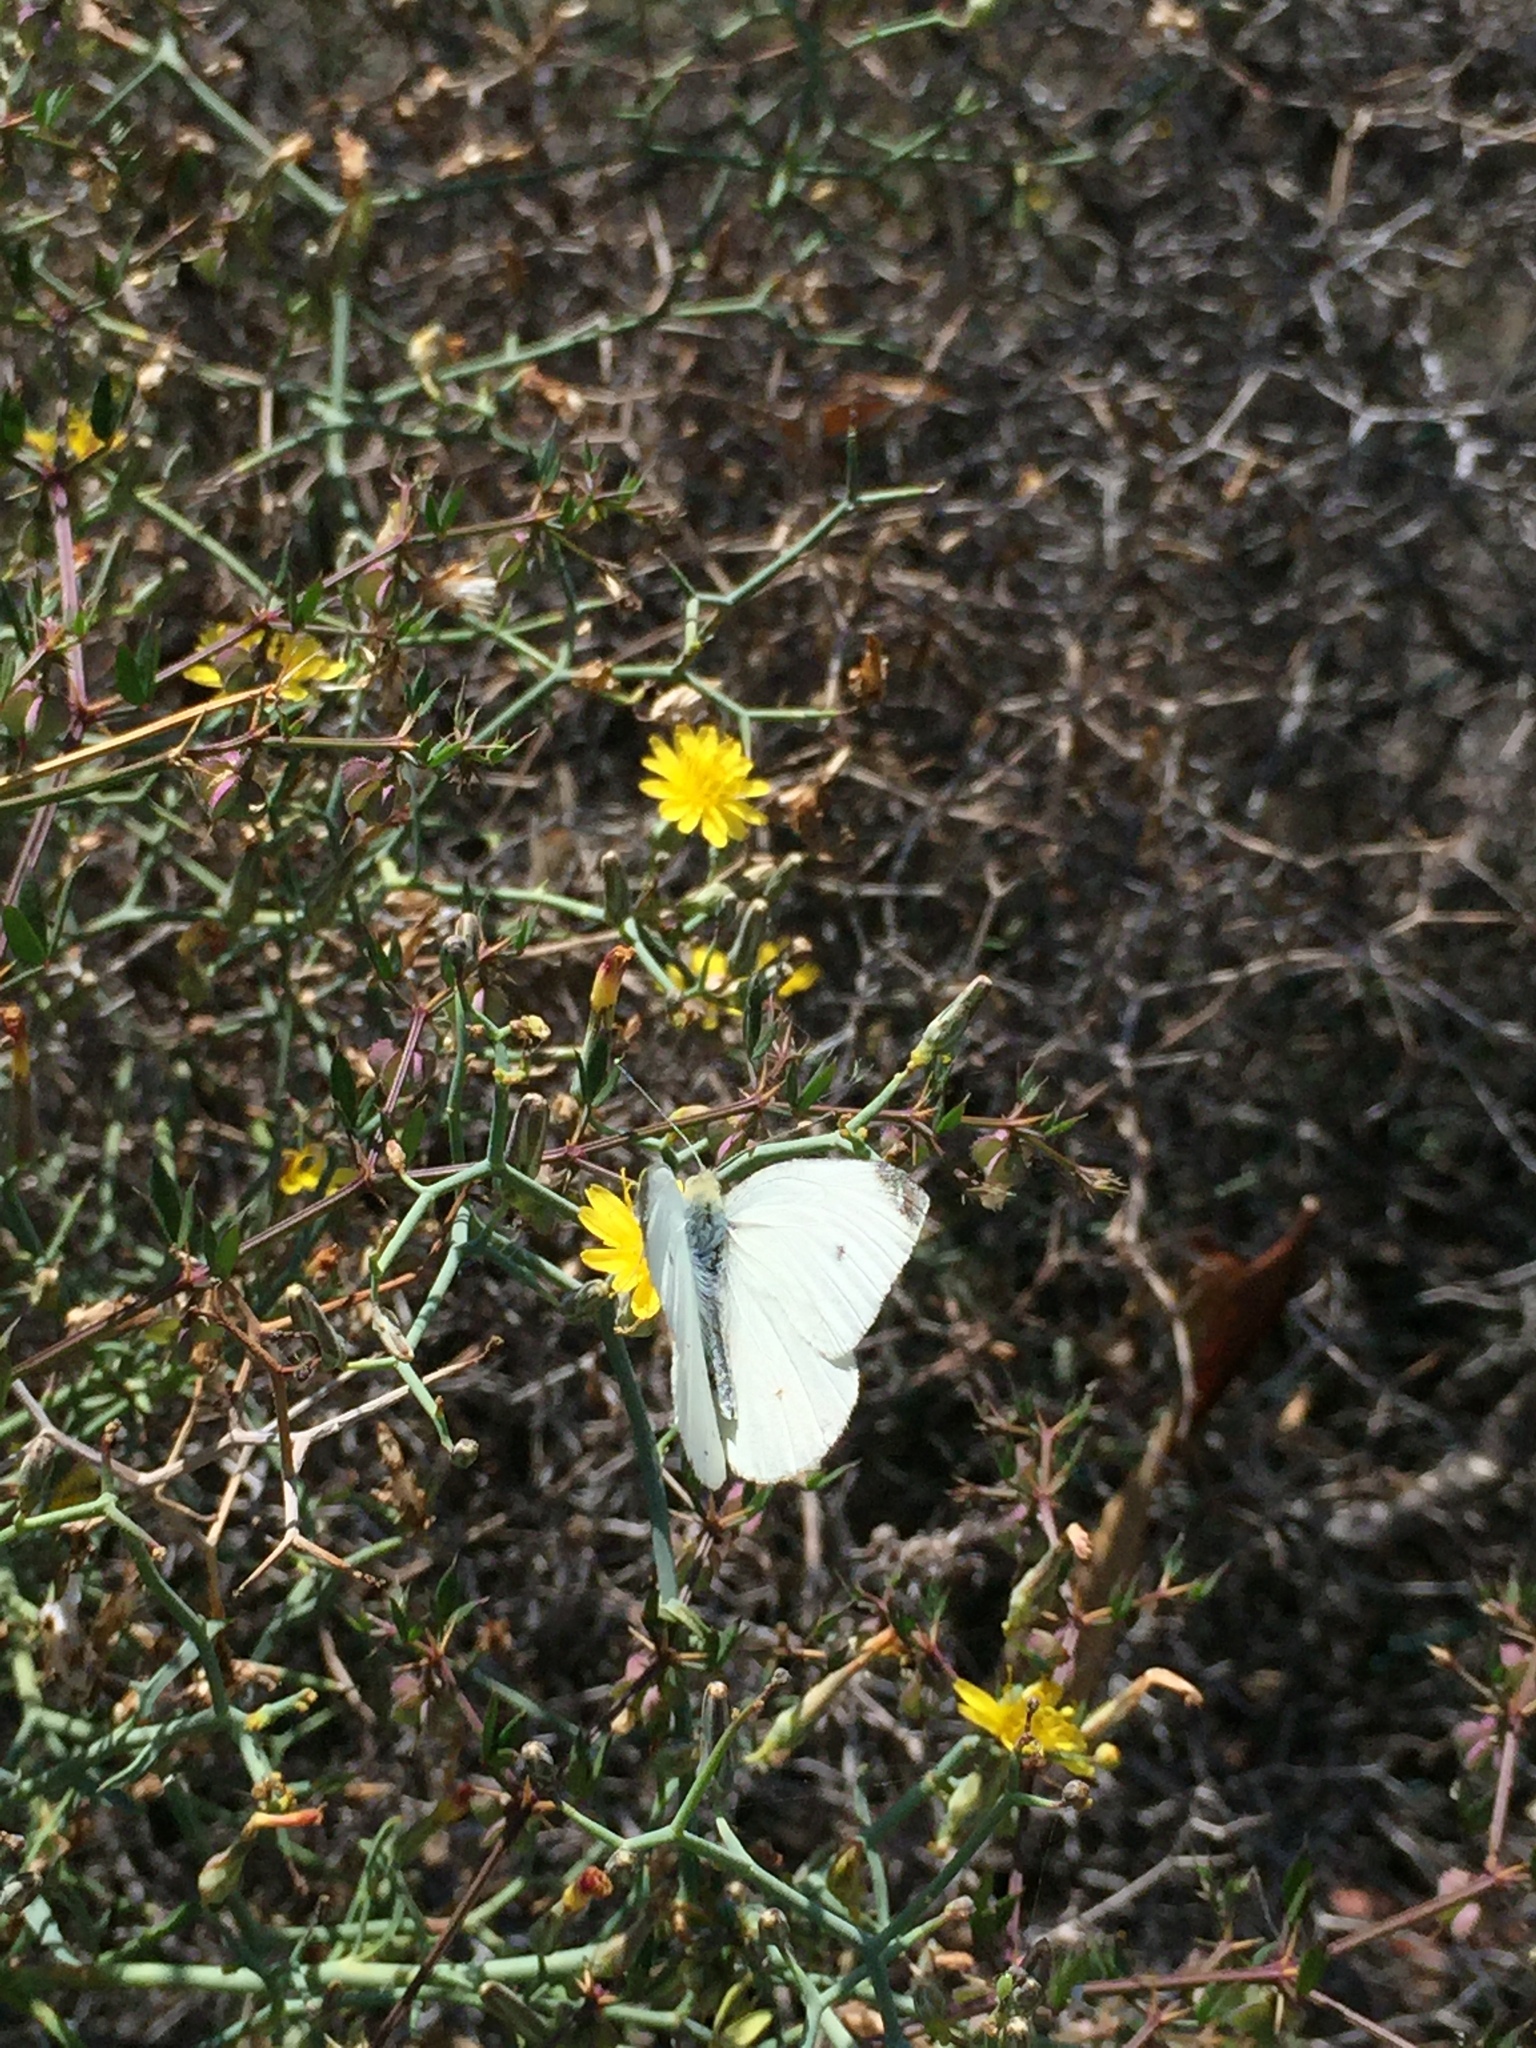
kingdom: Animalia
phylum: Arthropoda
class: Insecta
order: Lepidoptera
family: Pieridae
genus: Pieris
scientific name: Pieris rapae
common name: Small white
